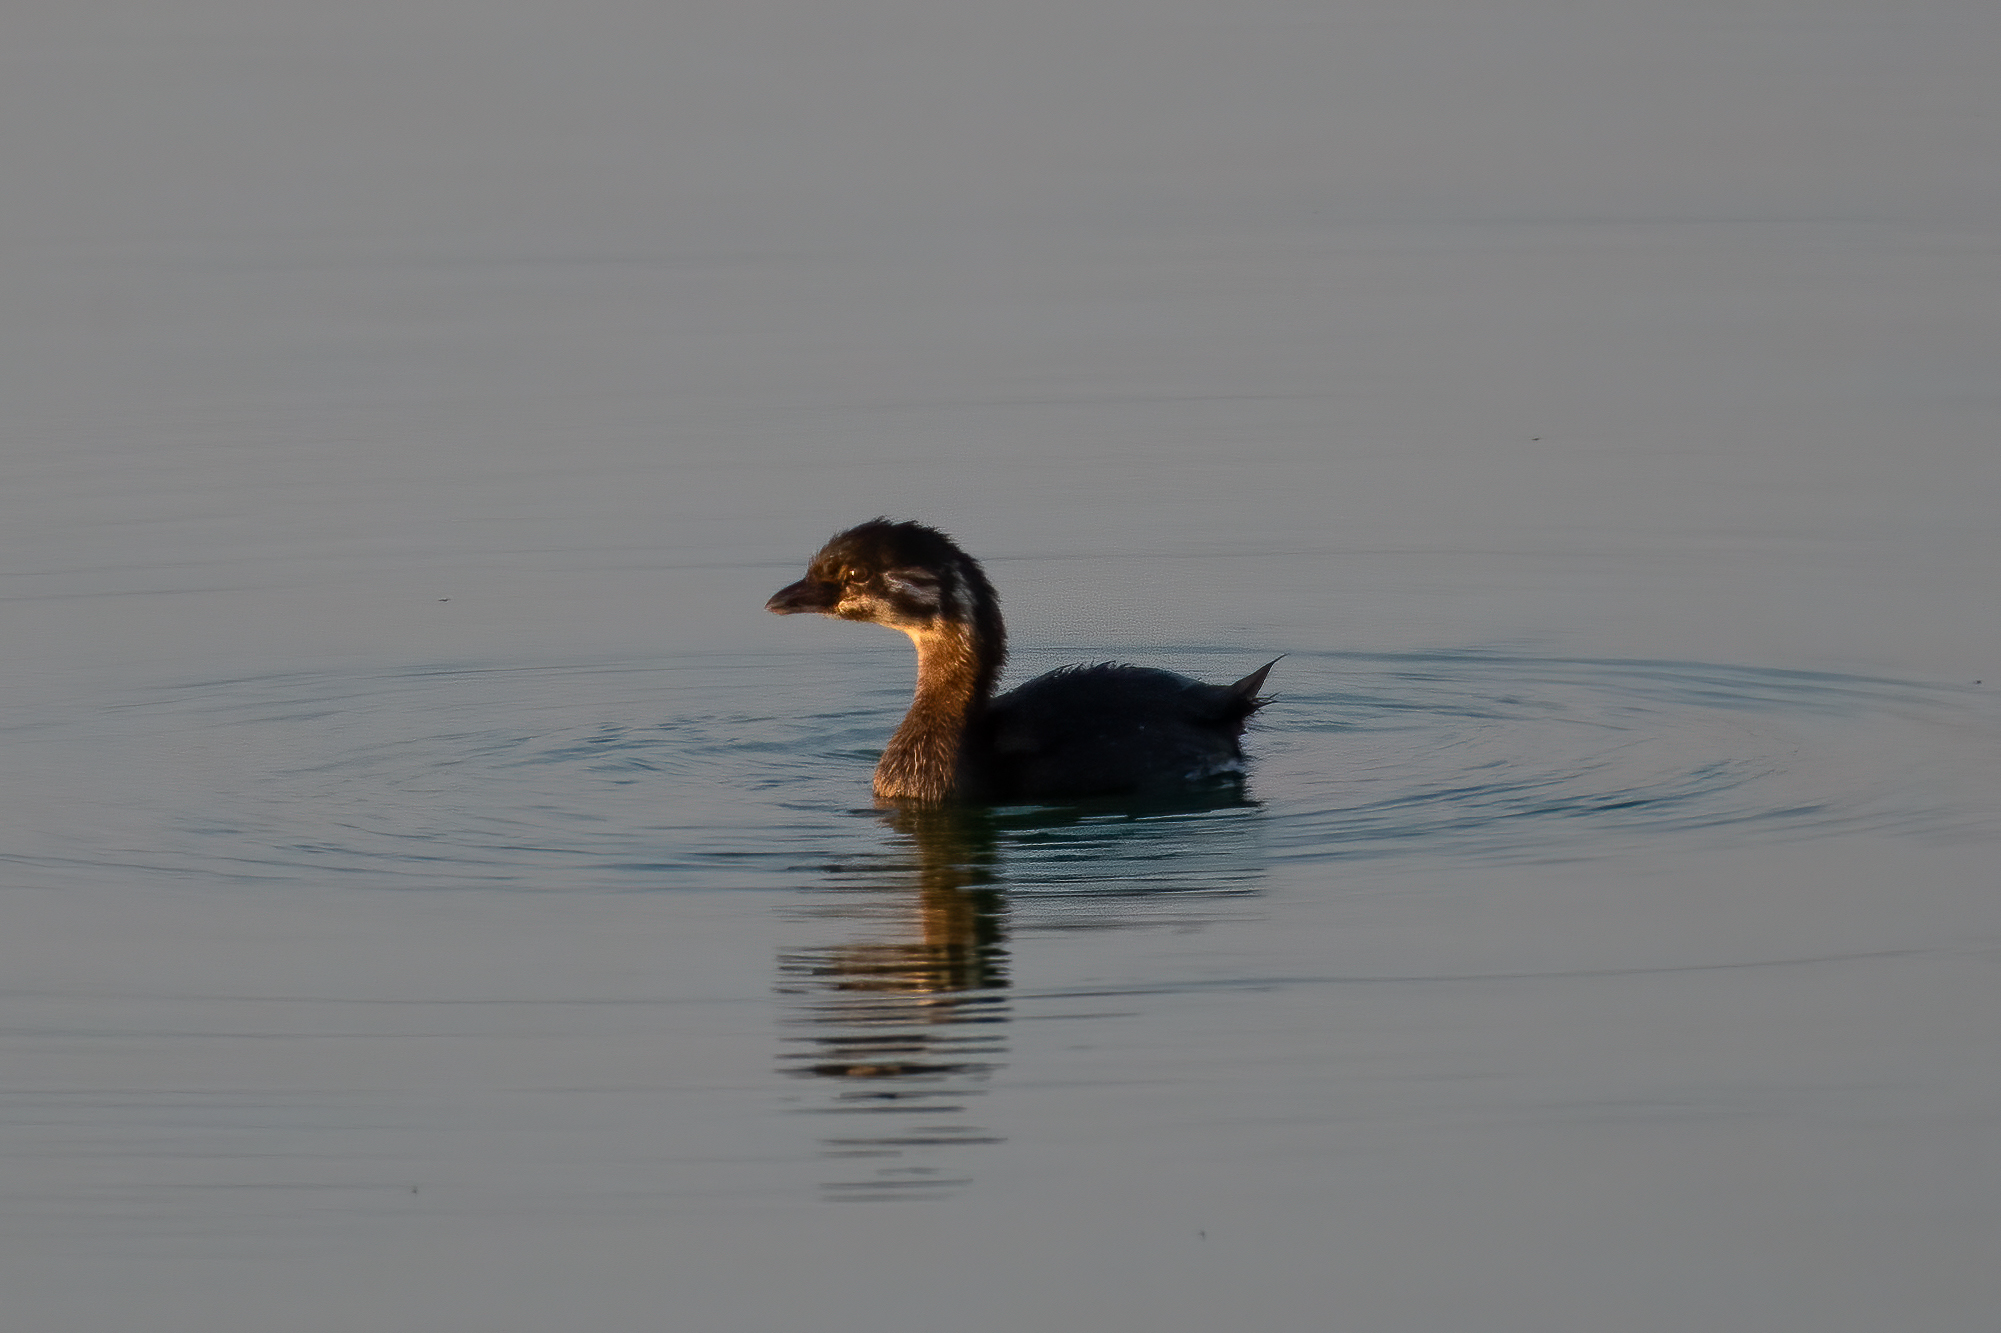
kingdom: Animalia
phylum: Chordata
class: Aves
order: Podicipediformes
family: Podicipedidae
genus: Podilymbus
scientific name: Podilymbus podiceps
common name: Pied-billed grebe
